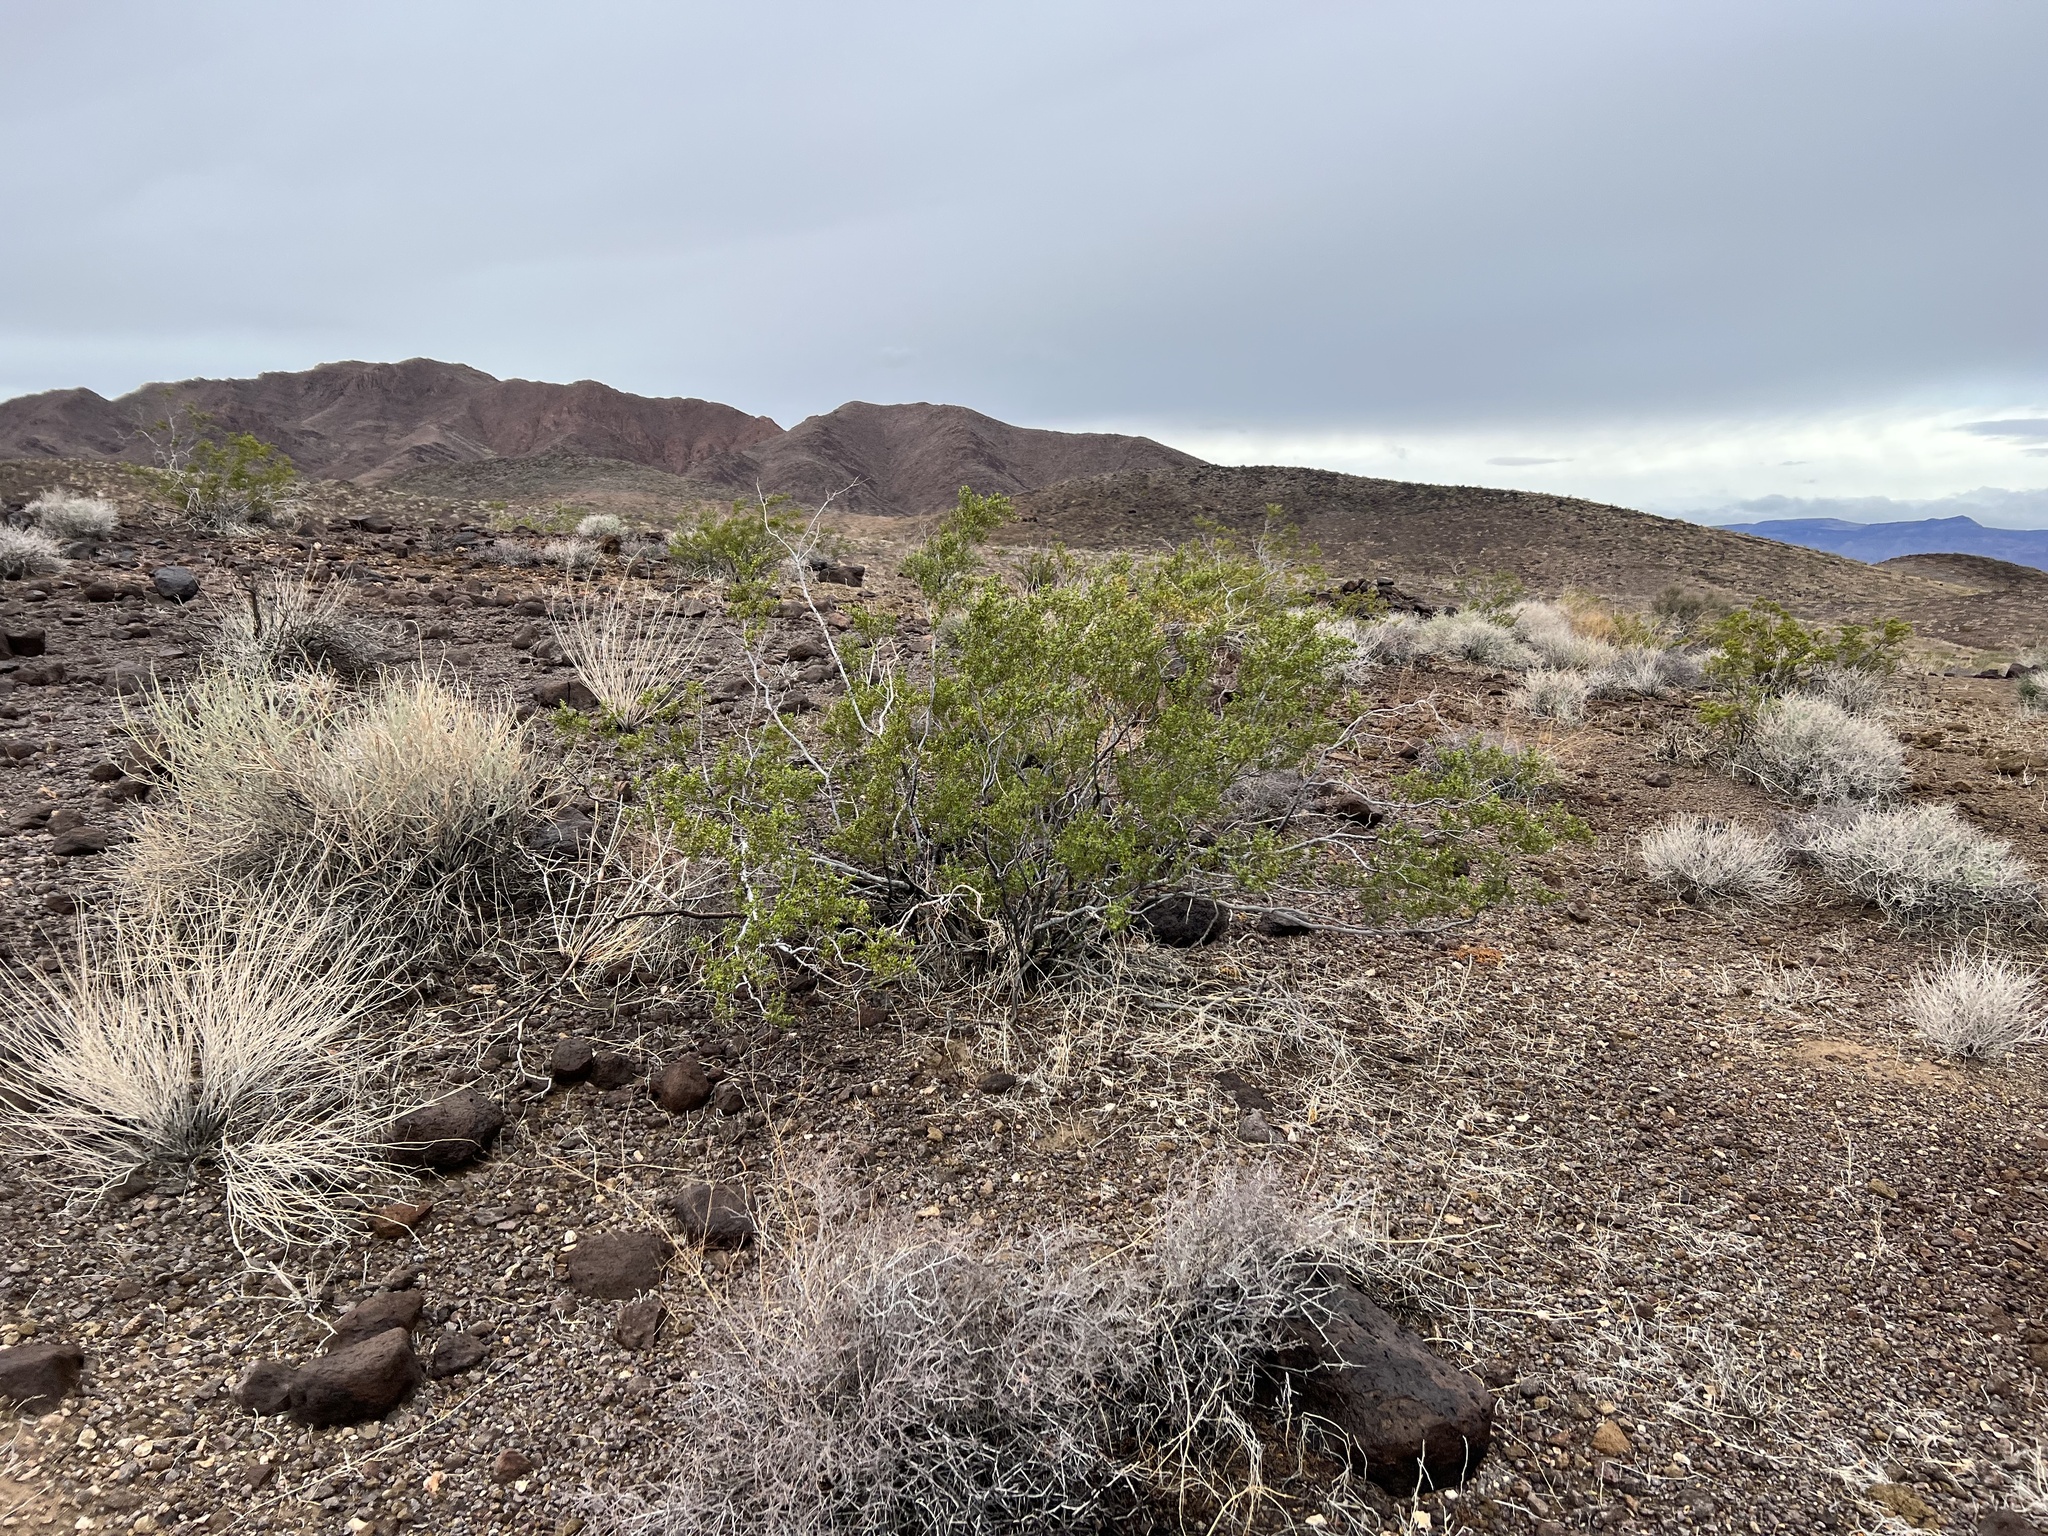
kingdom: Plantae
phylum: Tracheophyta
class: Magnoliopsida
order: Zygophyllales
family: Zygophyllaceae
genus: Larrea
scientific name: Larrea tridentata
